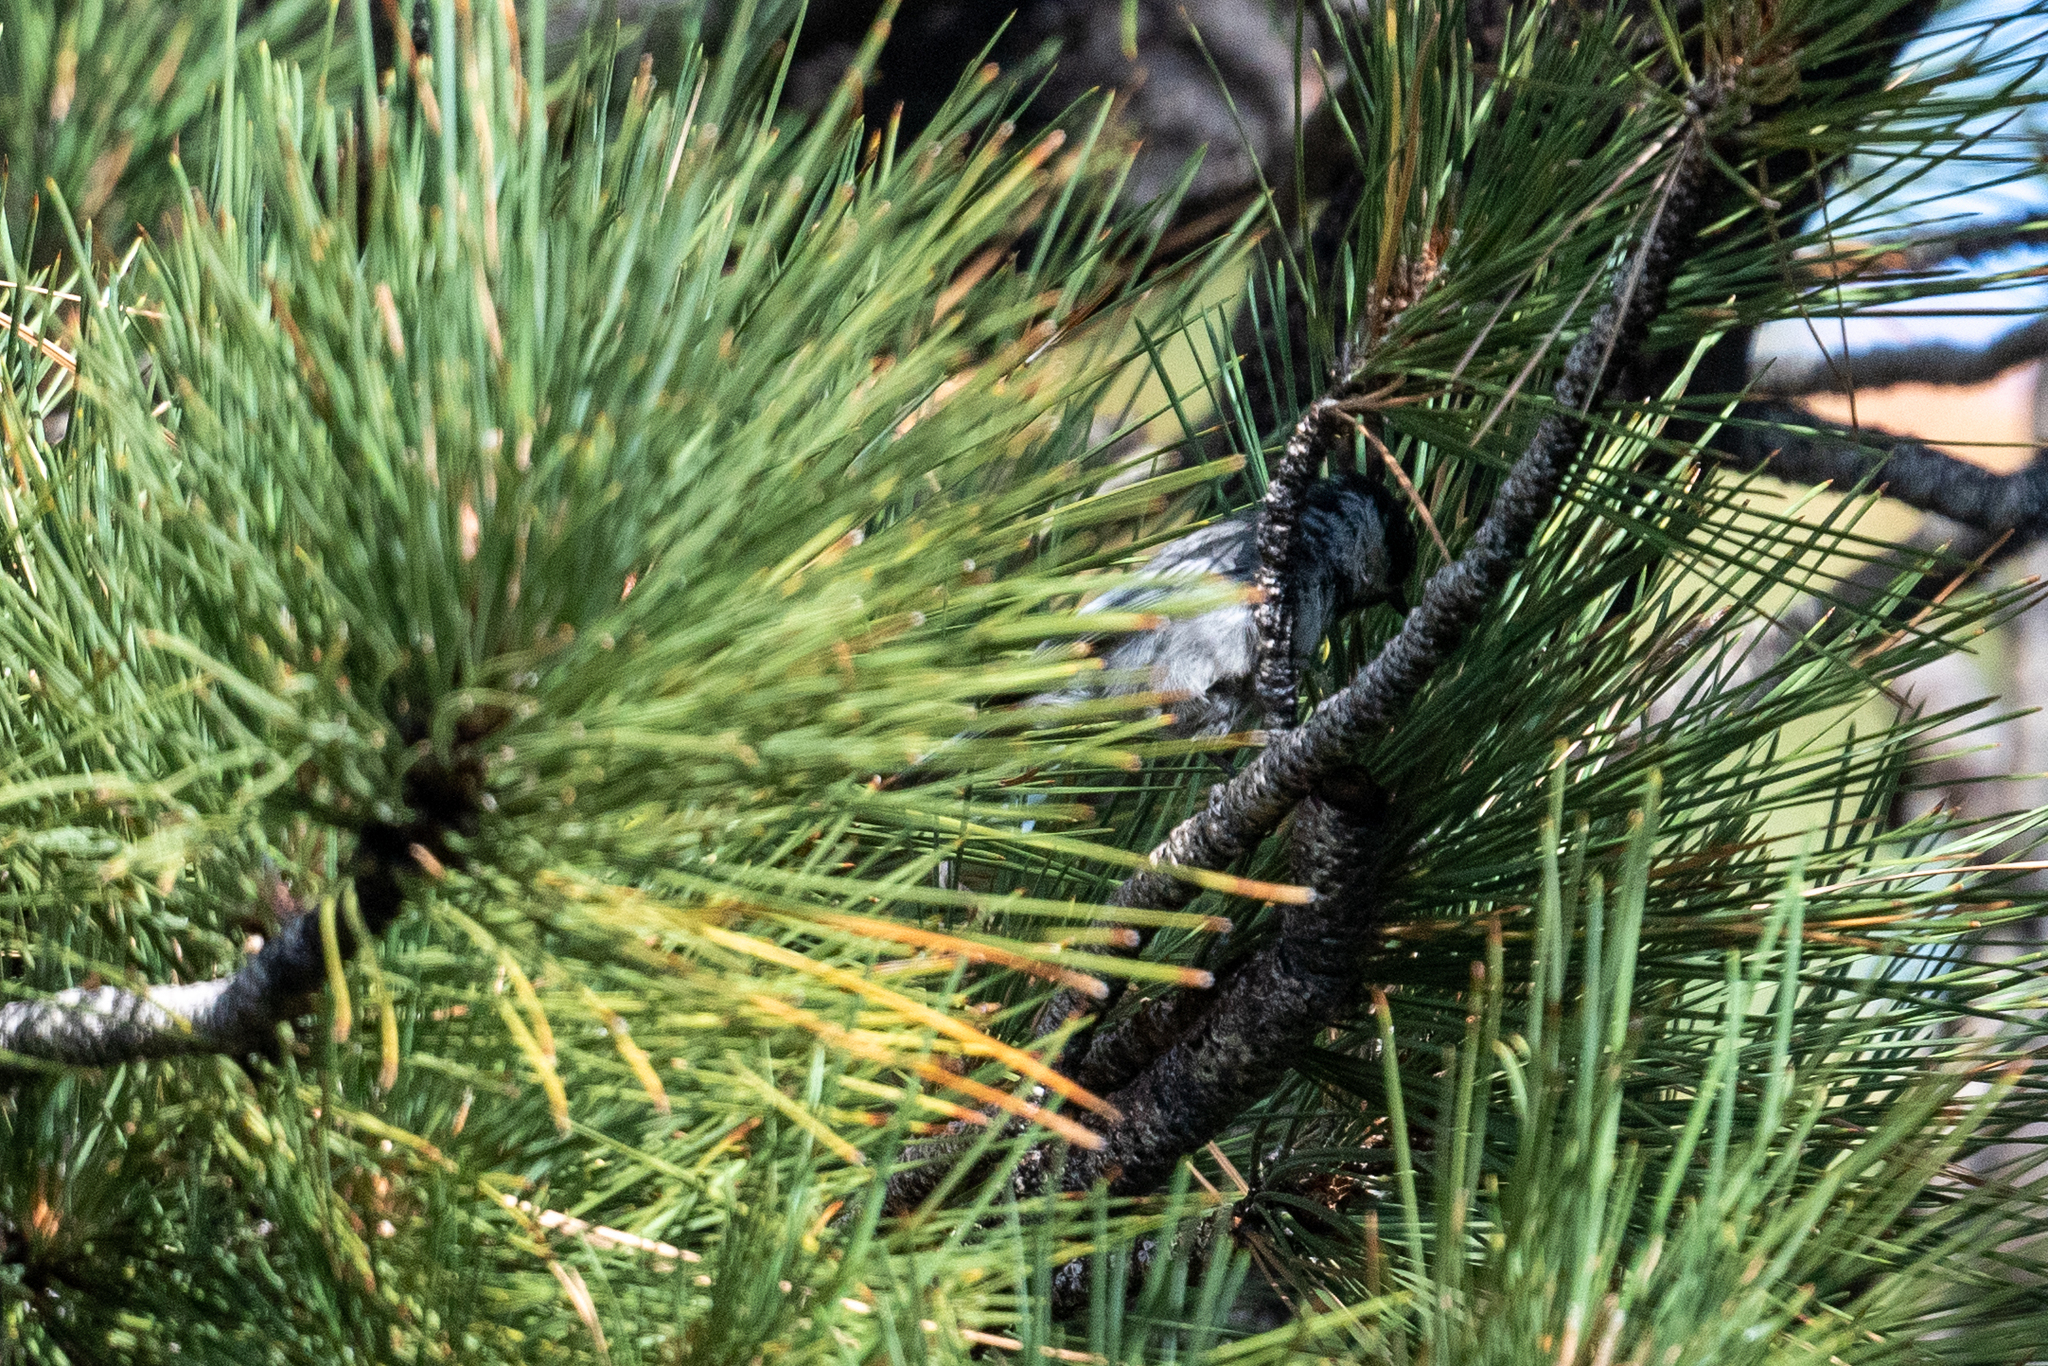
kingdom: Animalia
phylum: Chordata
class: Aves
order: Passeriformes
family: Paridae
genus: Poecile
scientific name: Poecile gambeli
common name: Mountain chickadee
